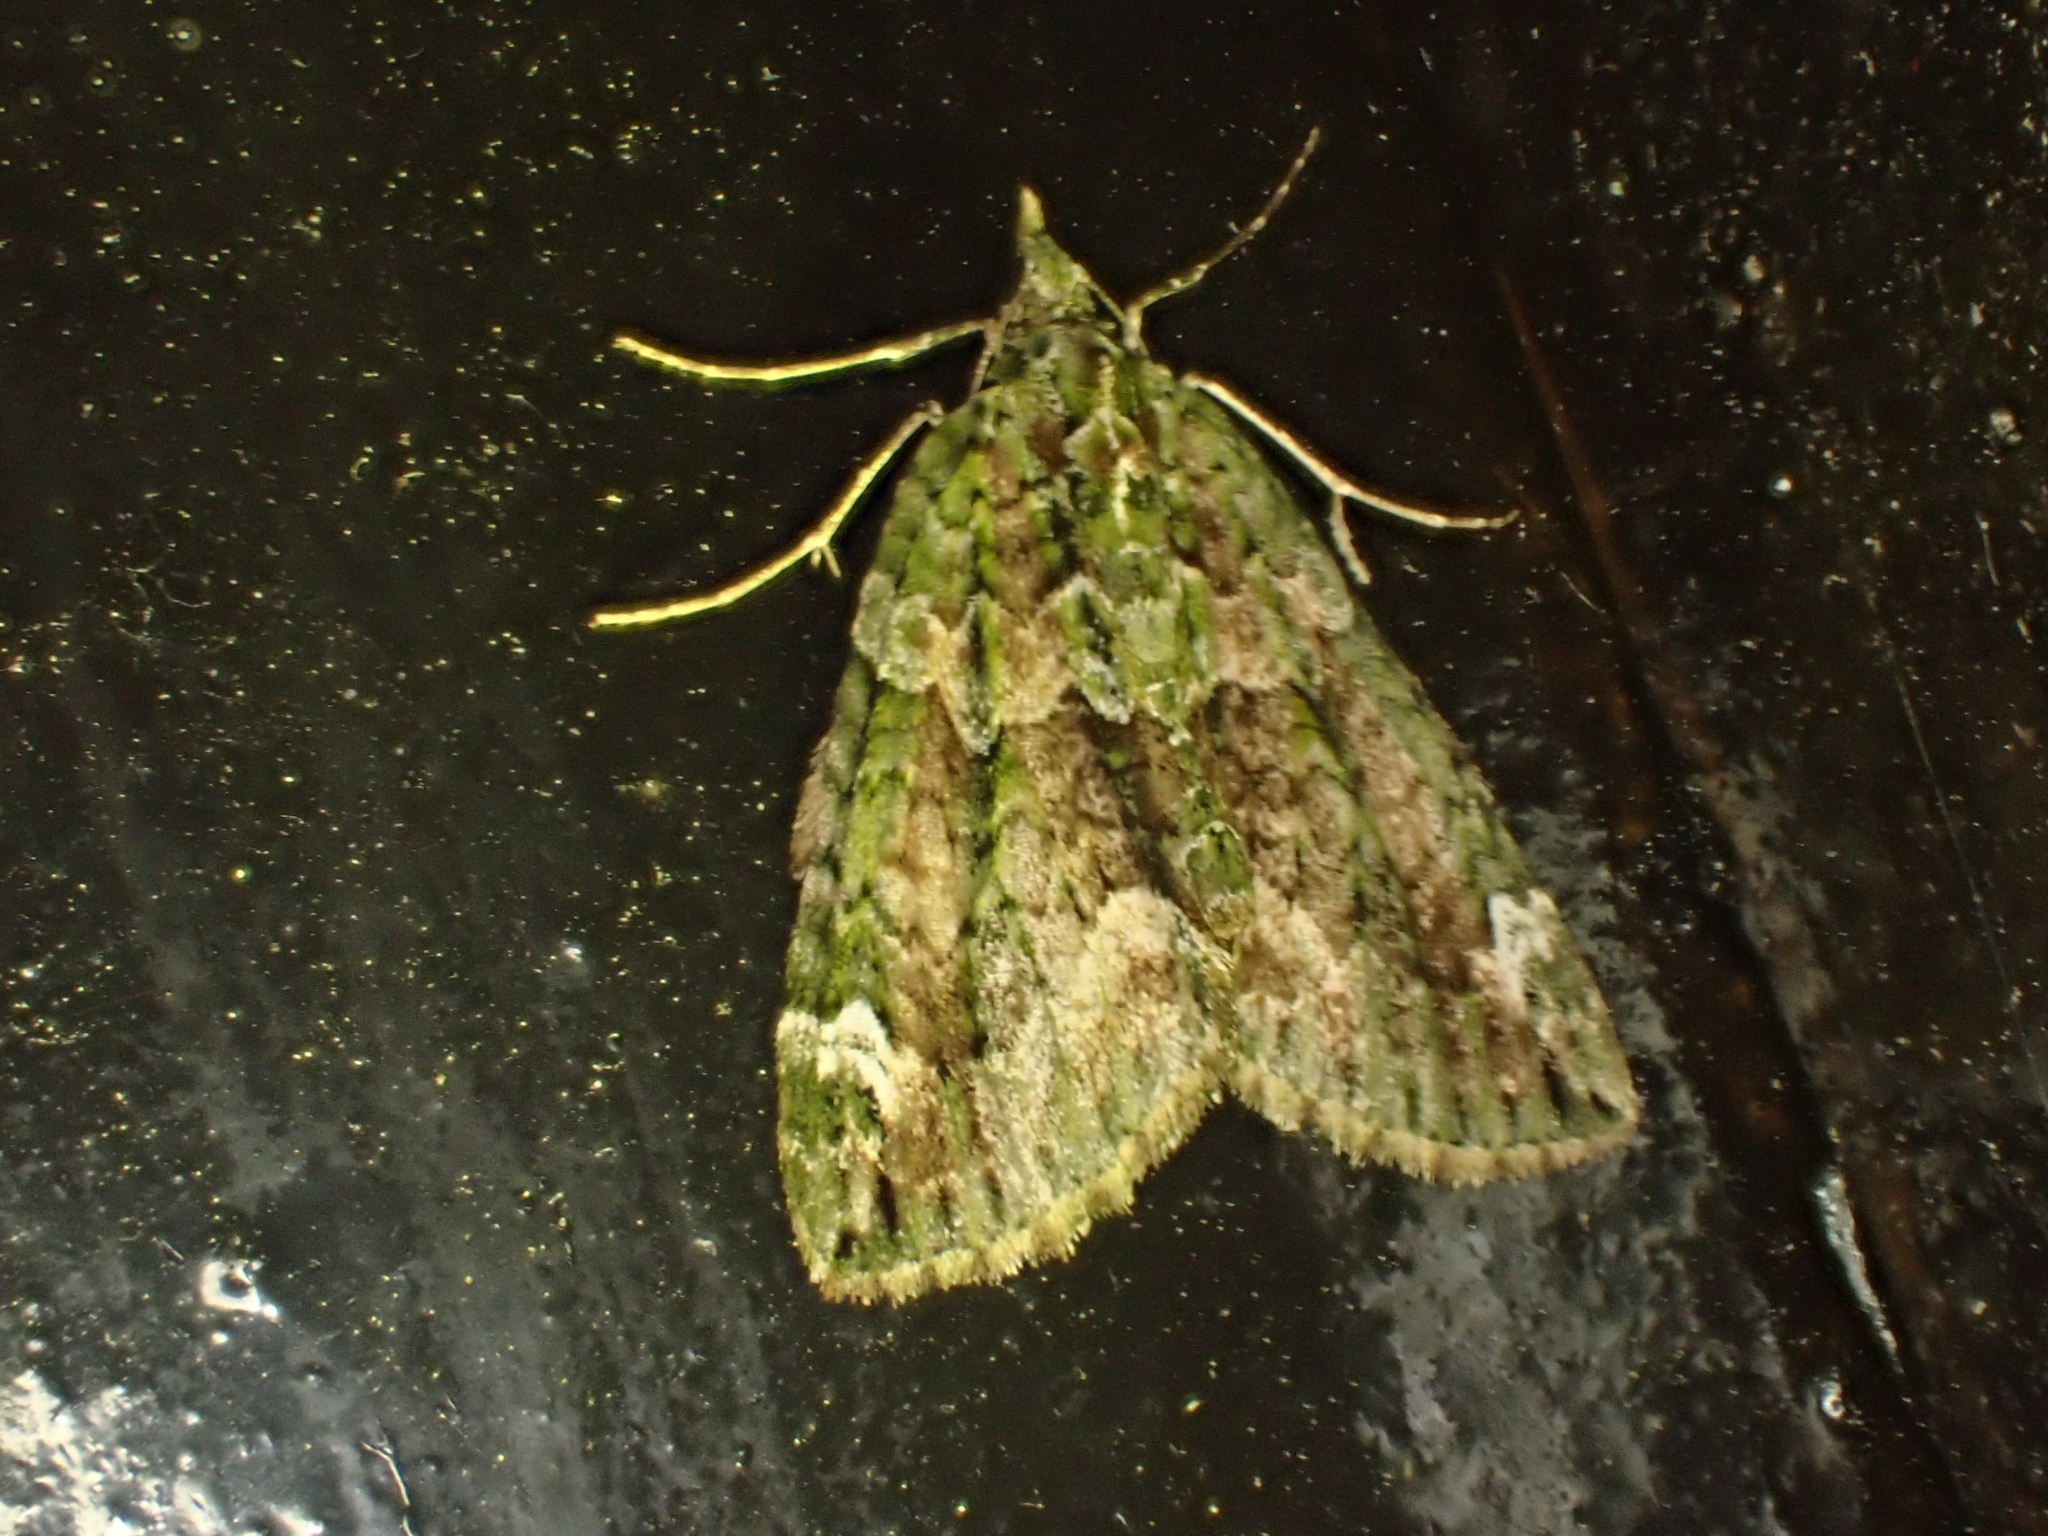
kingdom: Animalia
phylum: Arthropoda
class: Insecta
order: Lepidoptera
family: Geometridae
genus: Chloroclysta
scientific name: Chloroclysta siterata
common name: Red-green carpet
